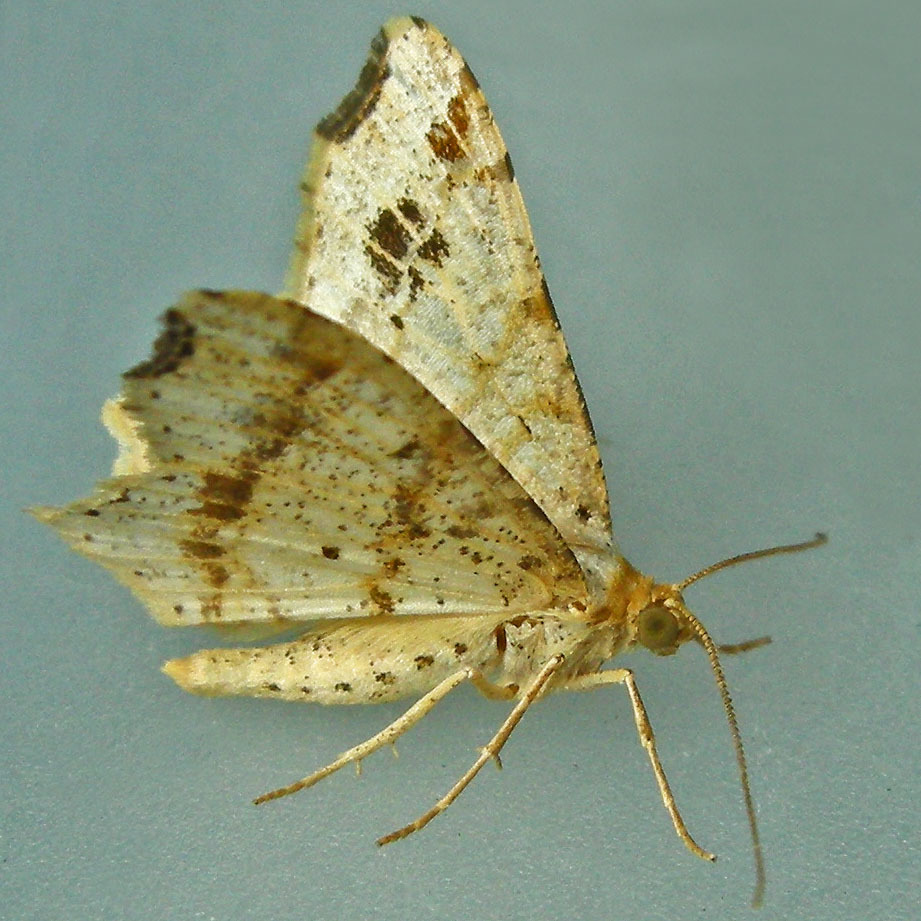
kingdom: Animalia
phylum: Arthropoda
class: Insecta
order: Lepidoptera
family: Geometridae
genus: Macaria
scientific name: Macaria aemulataria
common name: Common angle
